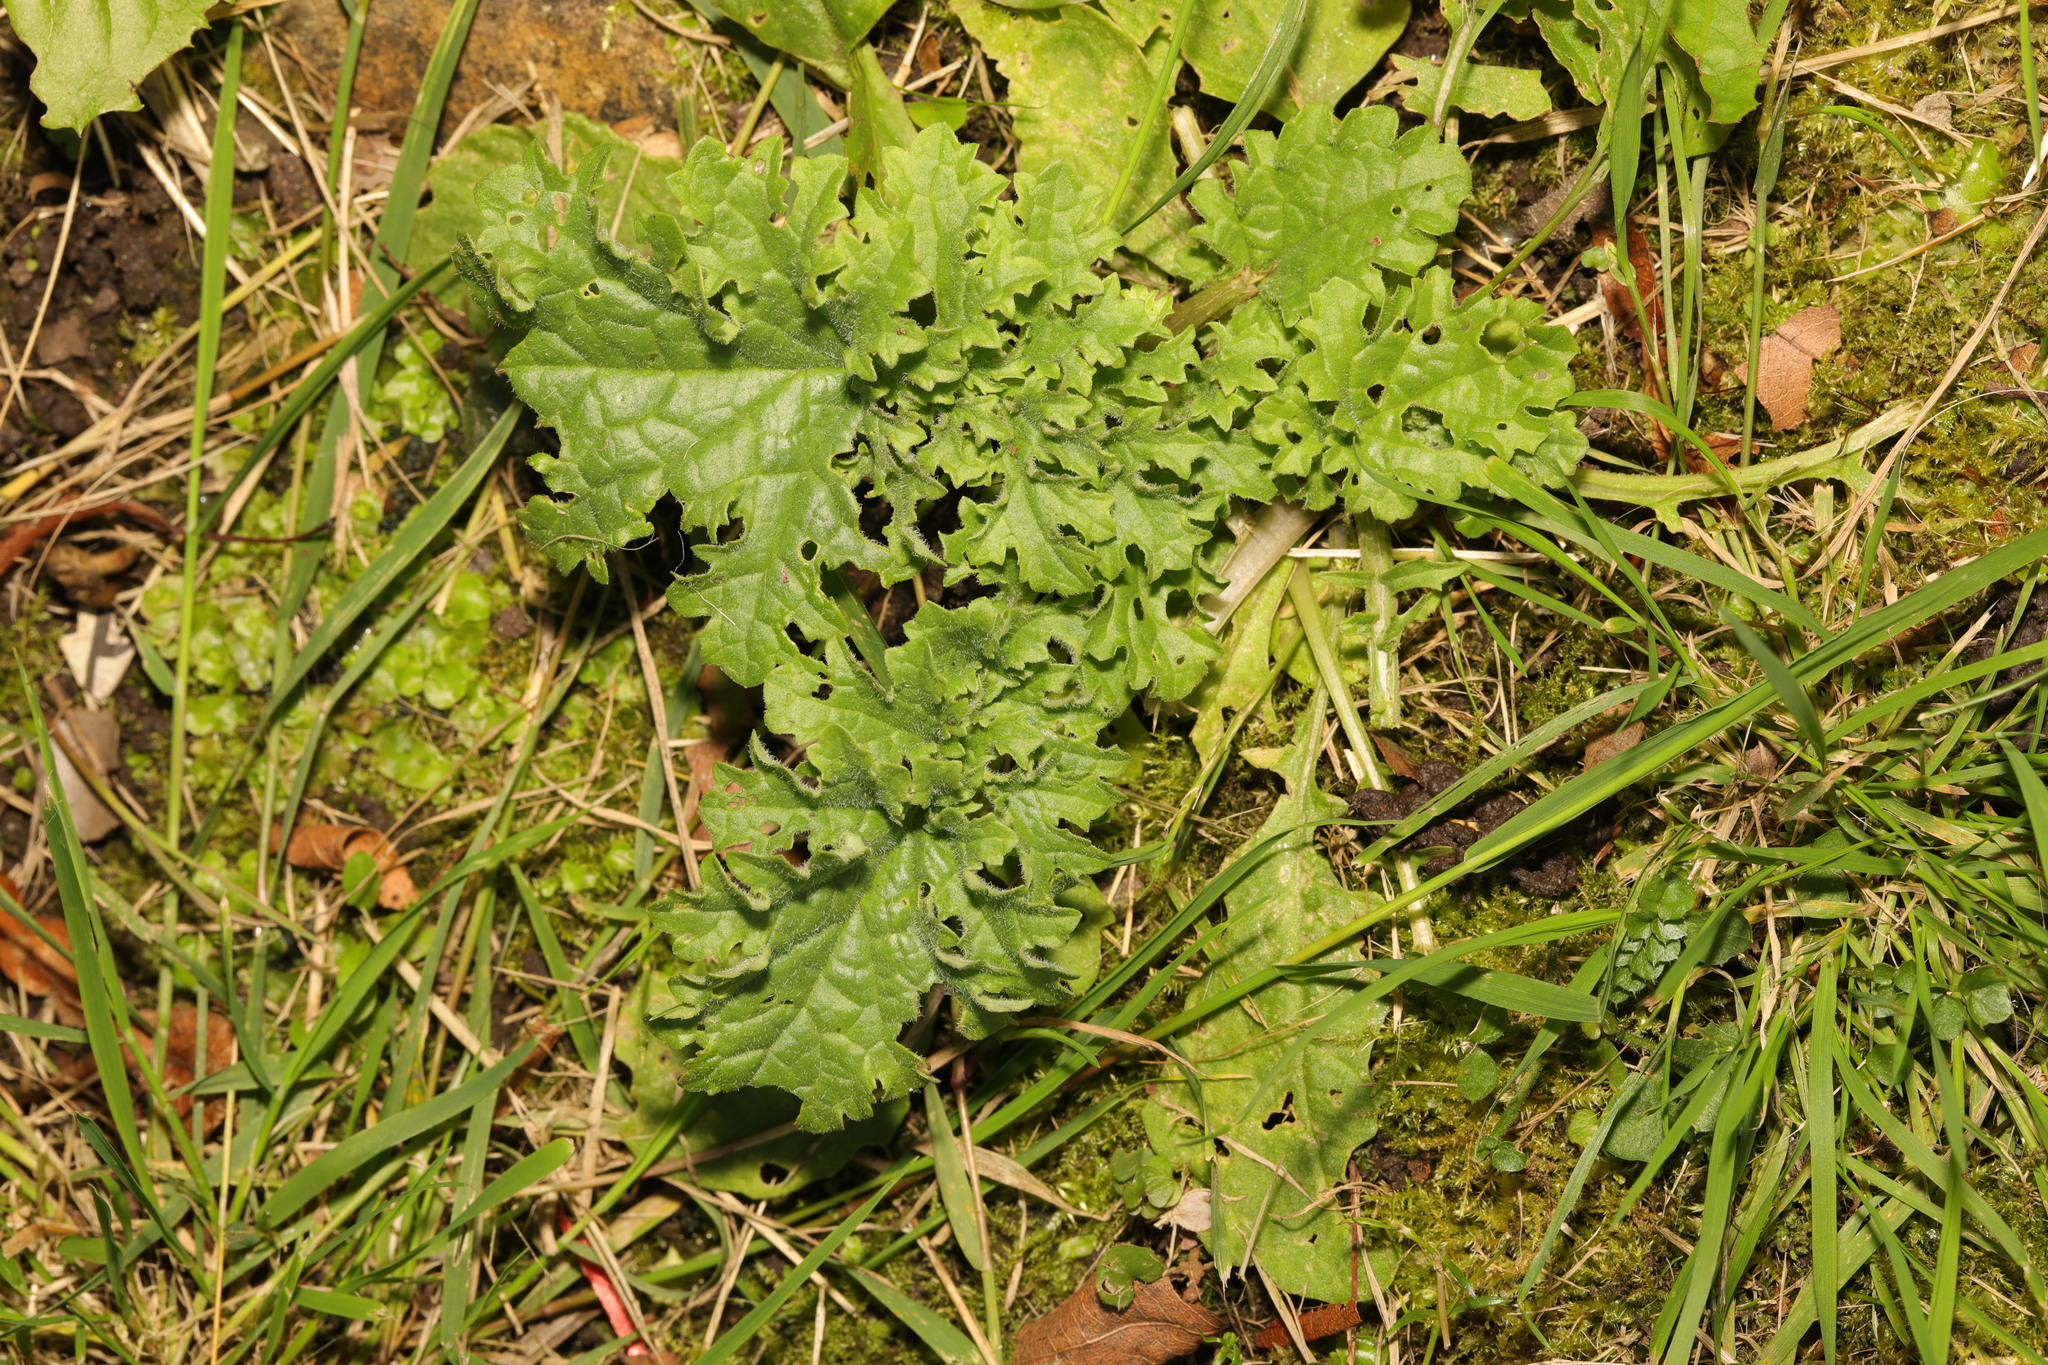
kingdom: Plantae
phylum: Tracheophyta
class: Magnoliopsida
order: Asterales
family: Asteraceae
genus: Jacobaea
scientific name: Jacobaea vulgaris
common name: Stinking willie
